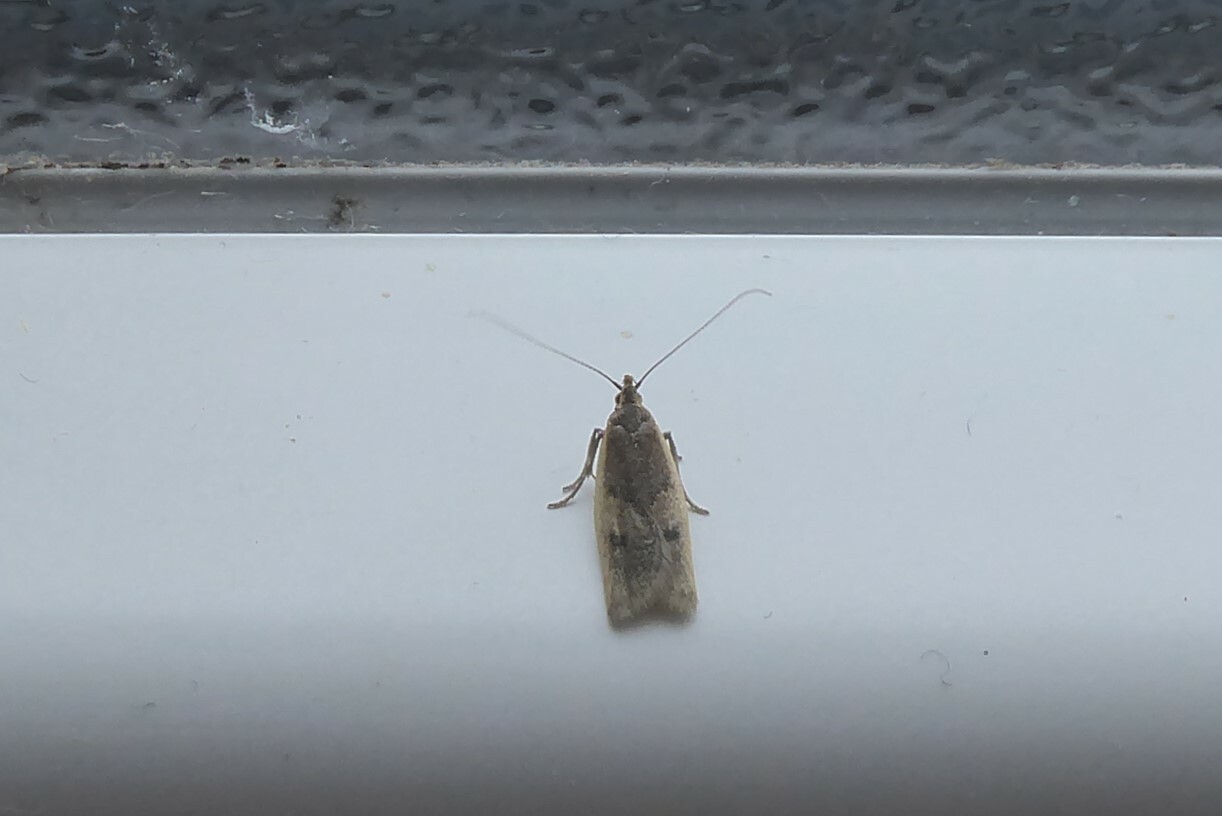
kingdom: Animalia
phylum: Arthropoda
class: Insecta
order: Lepidoptera
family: Oecophoridae
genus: Gymnobathra
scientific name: Gymnobathra tholodella
